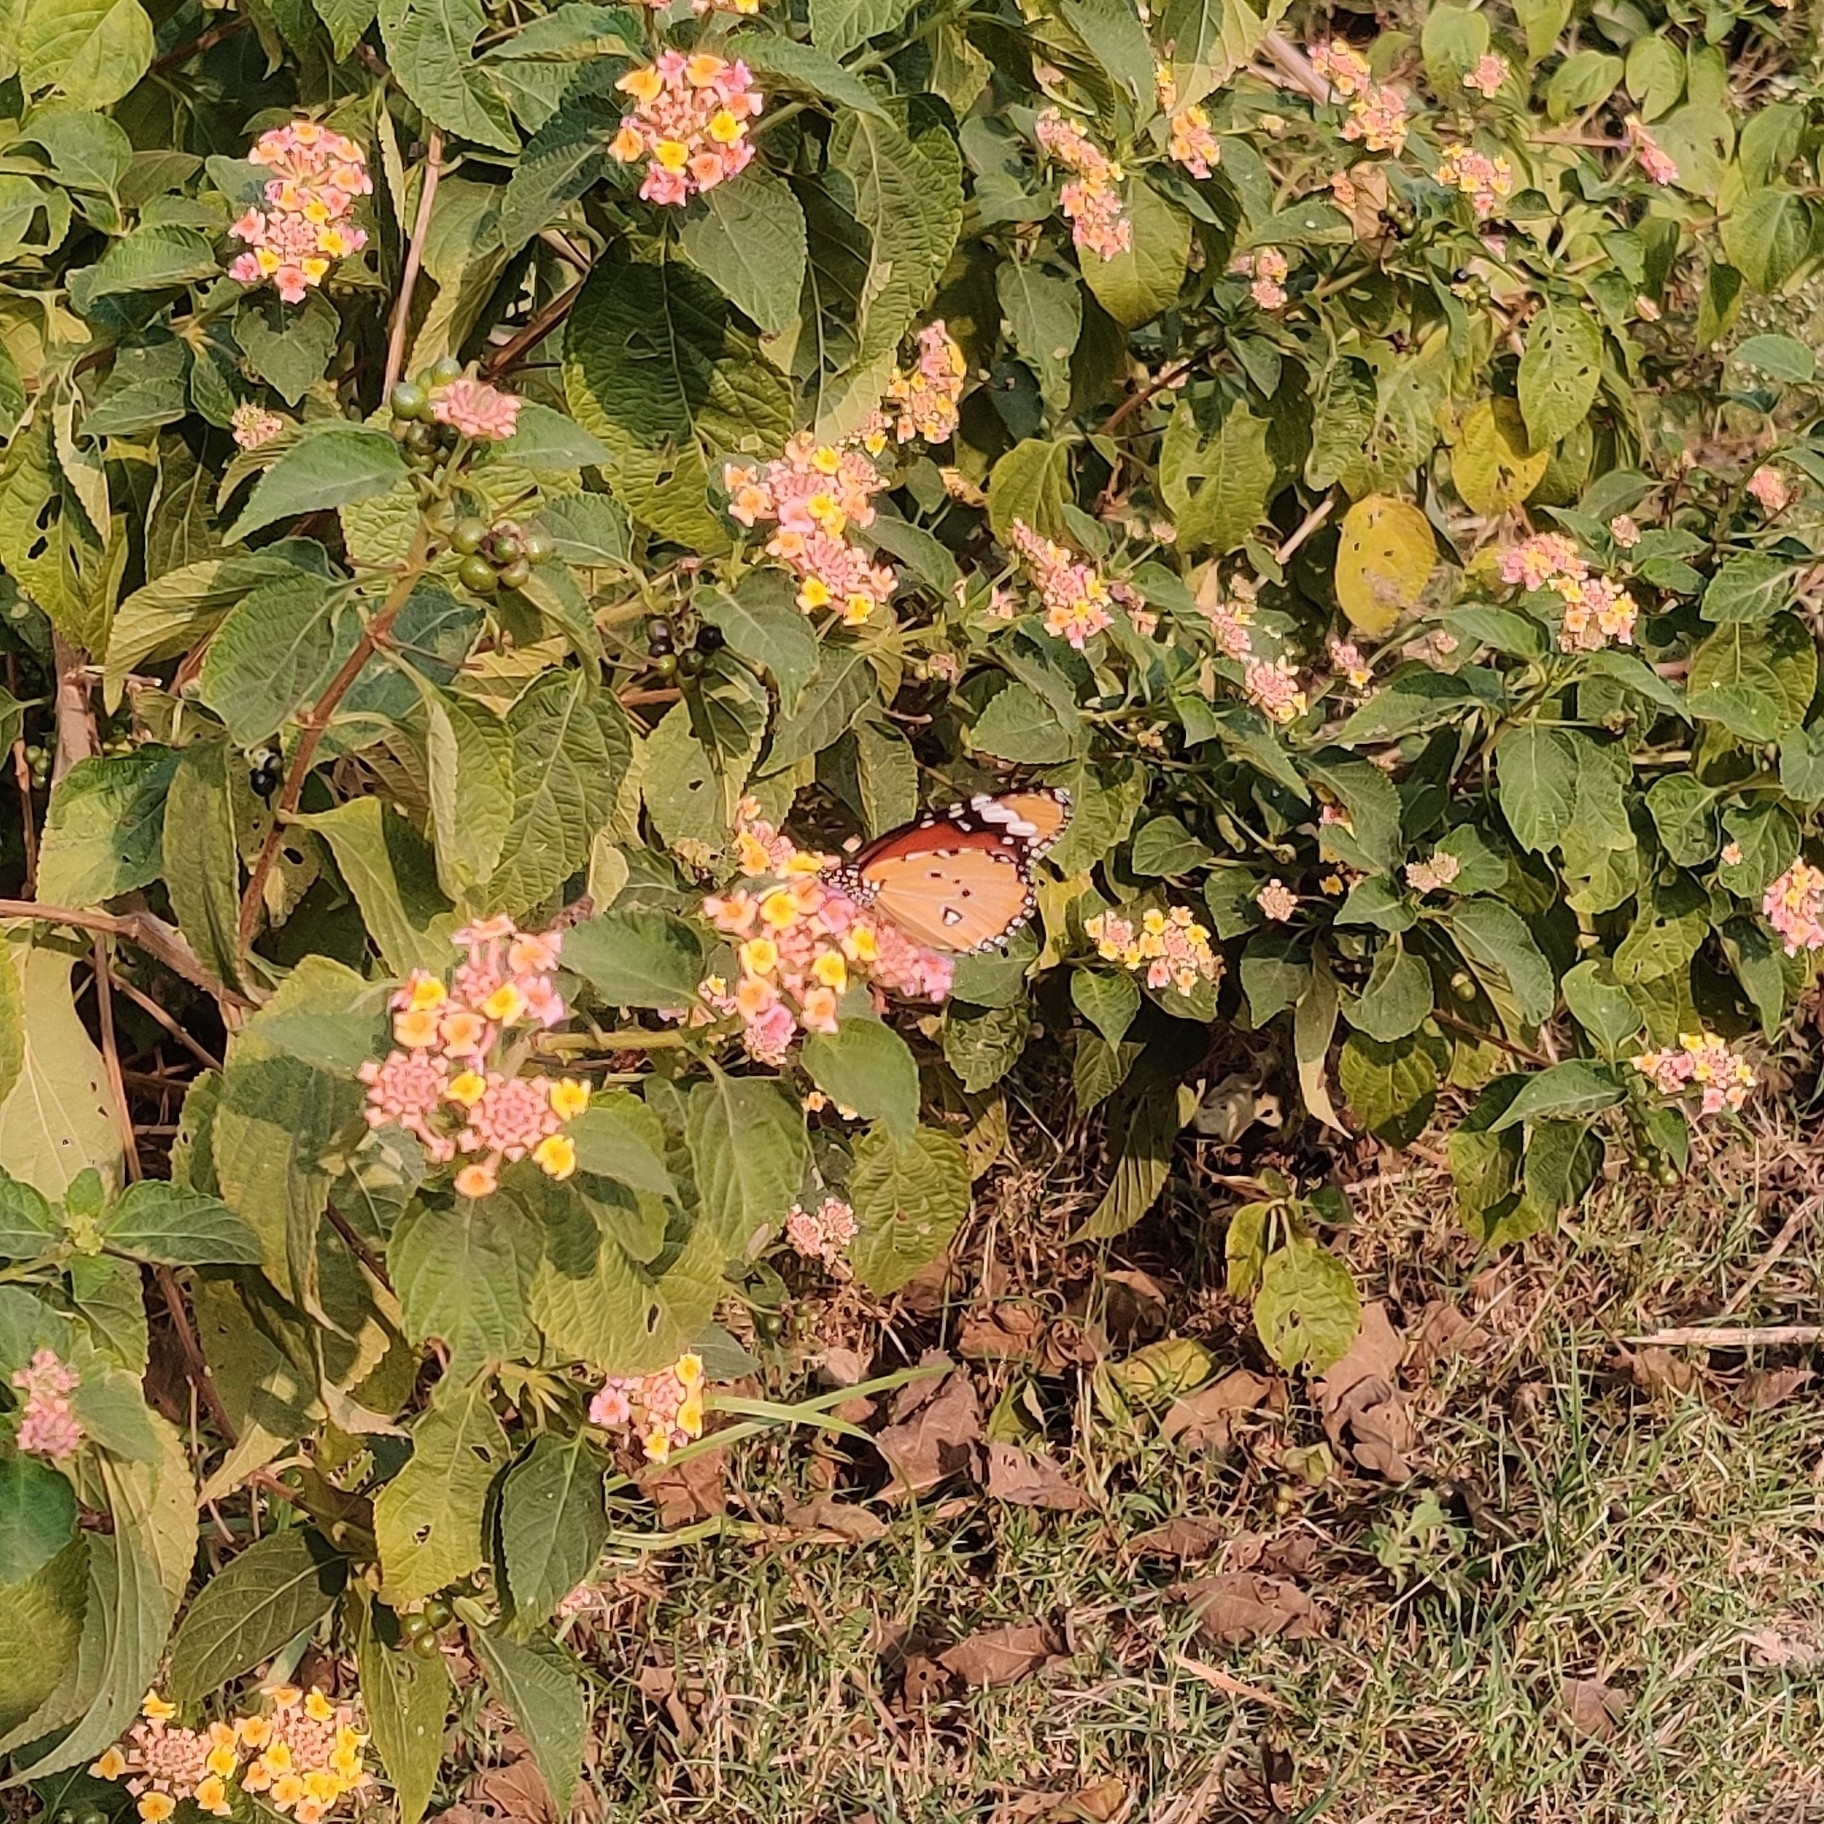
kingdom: Animalia
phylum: Arthropoda
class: Insecta
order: Lepidoptera
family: Nymphalidae
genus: Danaus
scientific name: Danaus chrysippus
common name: Plain tiger
